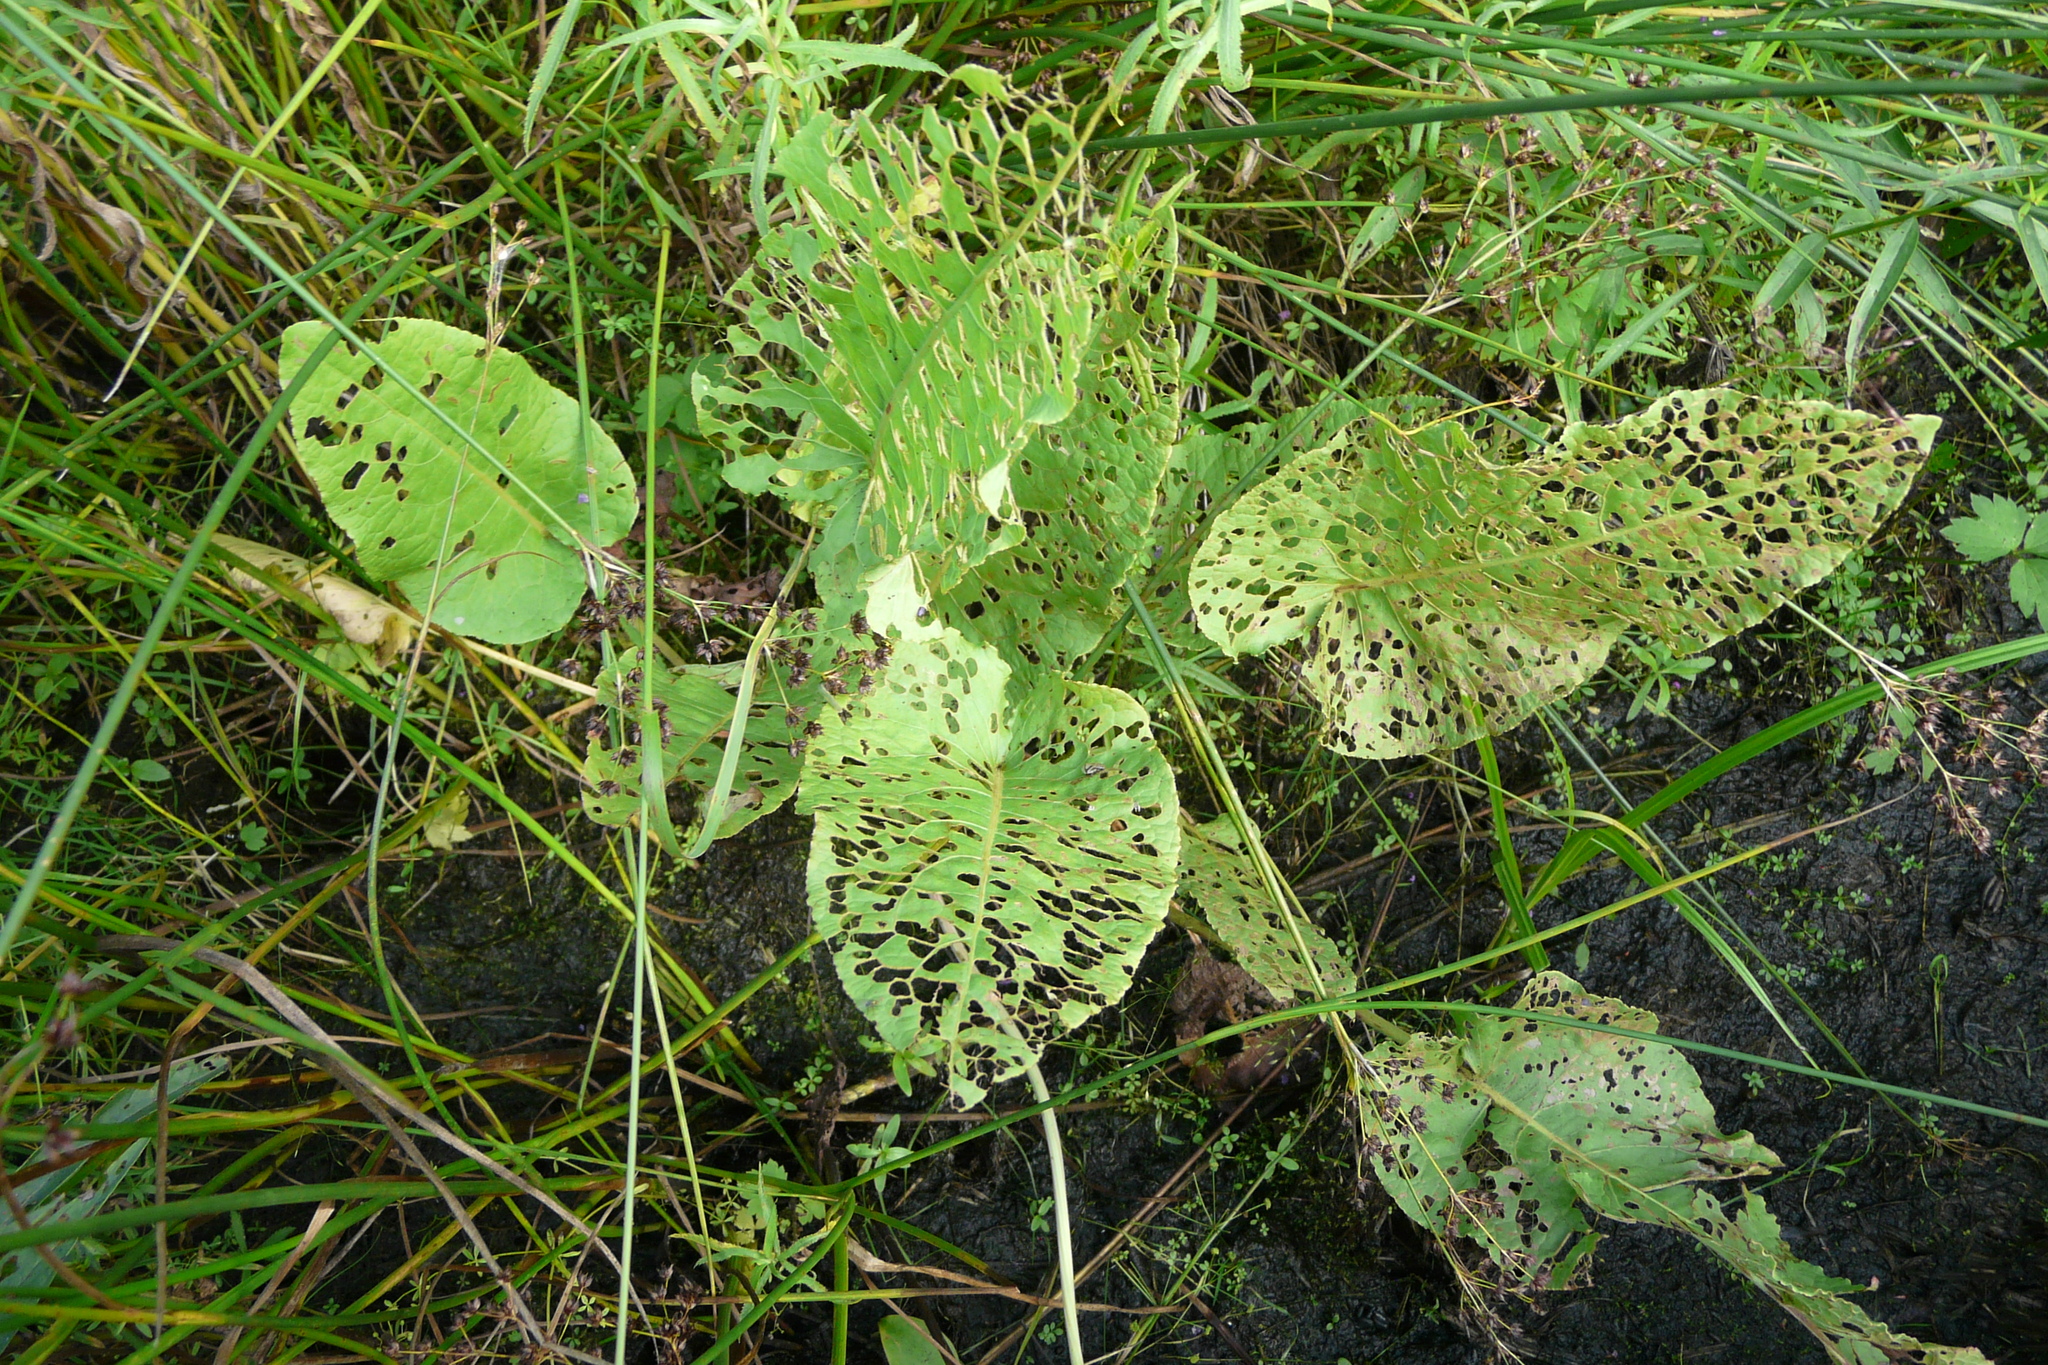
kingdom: Plantae
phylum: Tracheophyta
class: Magnoliopsida
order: Brassicales
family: Brassicaceae
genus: Rorippa
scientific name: Rorippa amphibia
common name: Great yellow-cress
